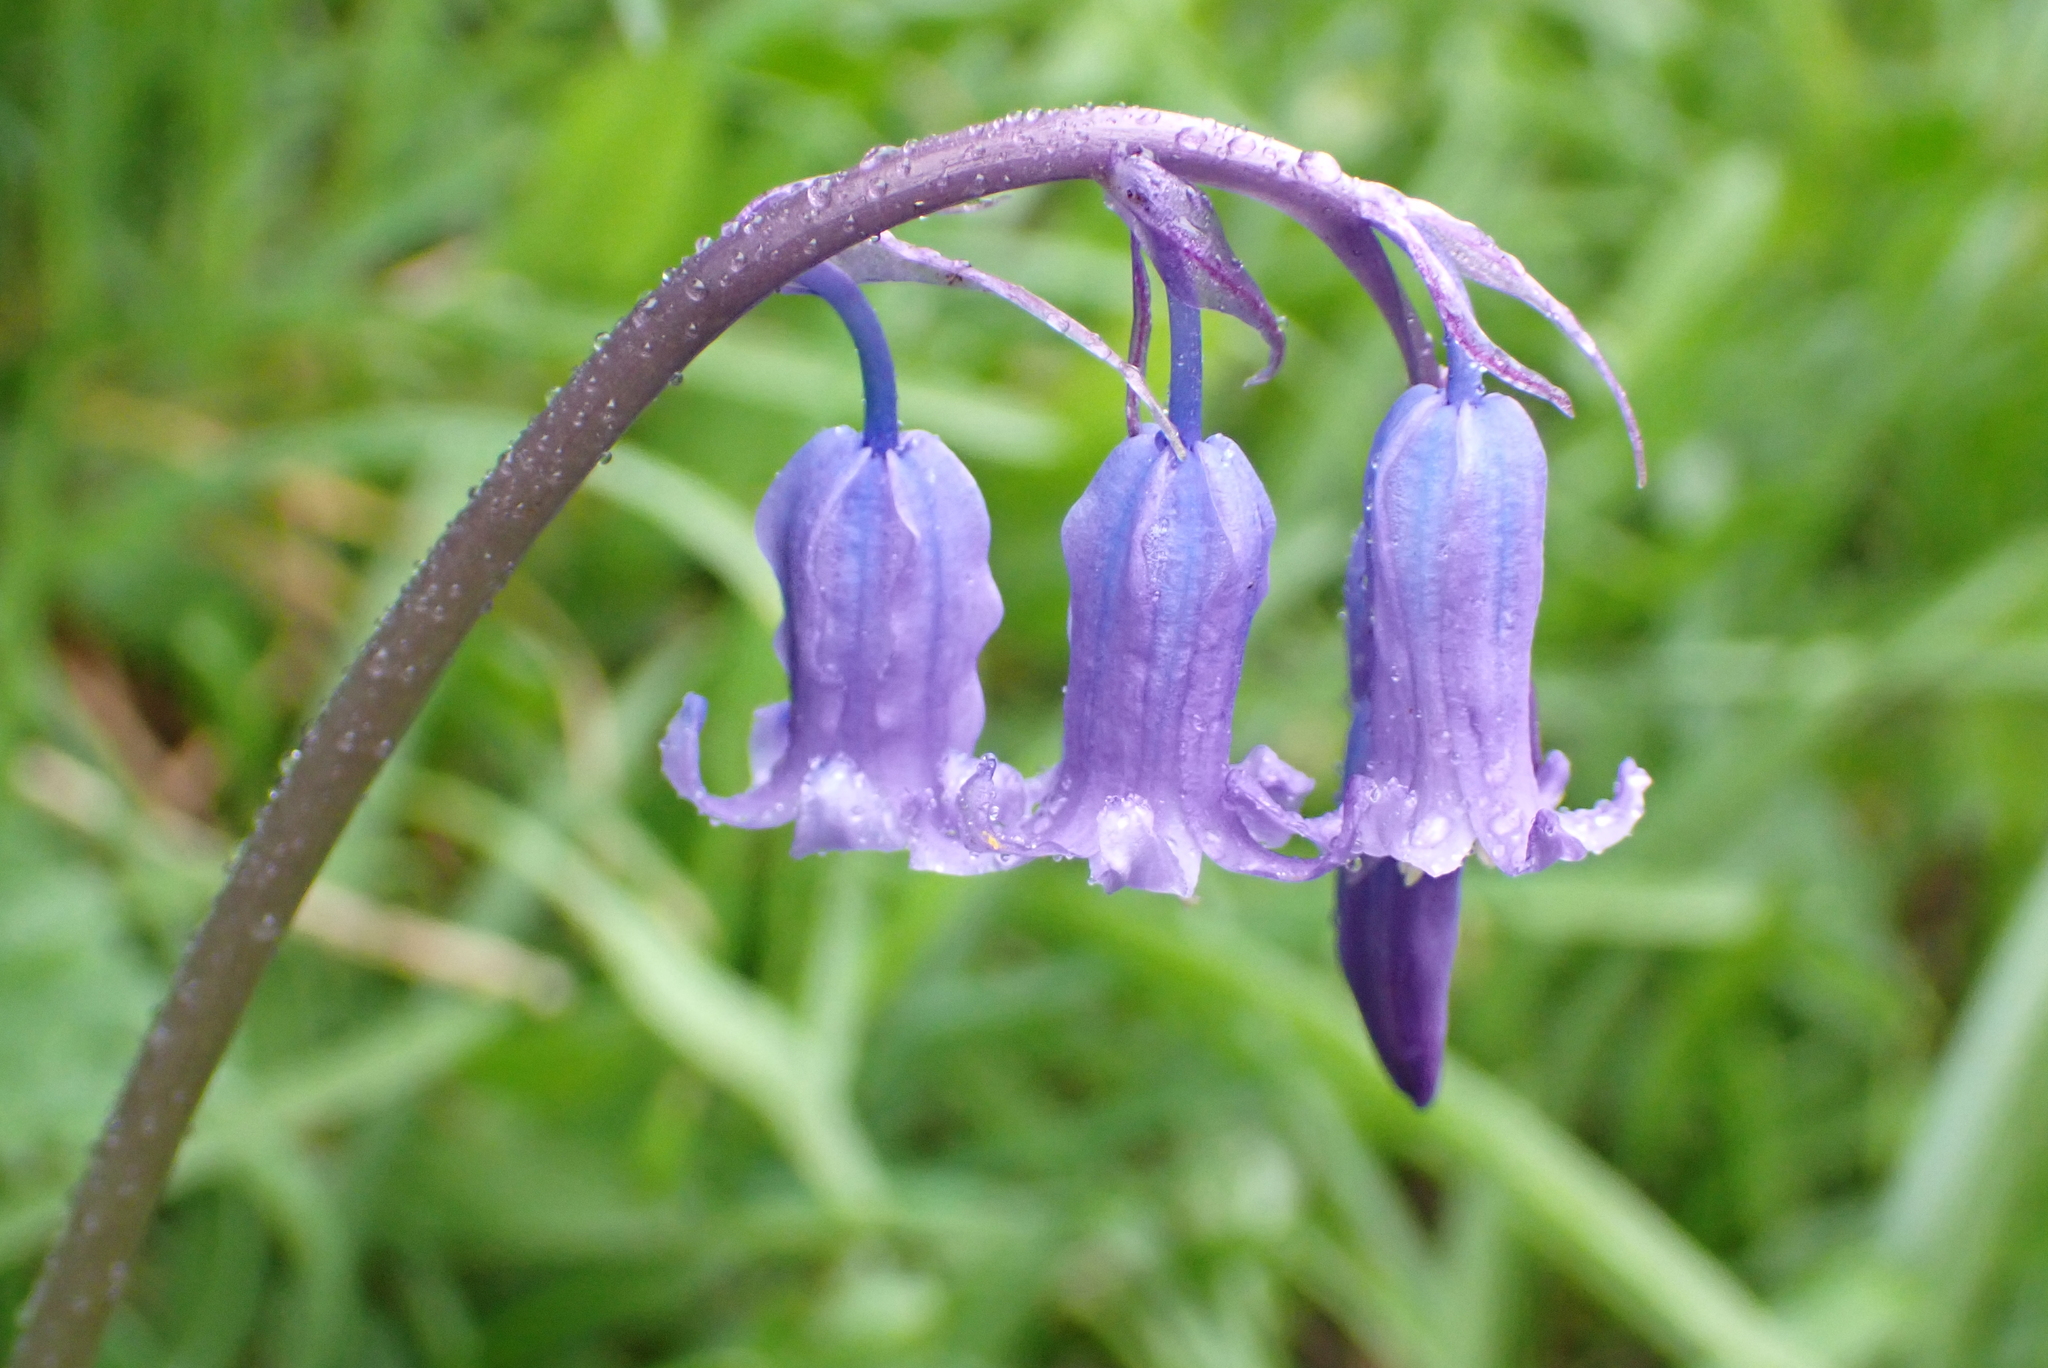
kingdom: Plantae
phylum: Tracheophyta
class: Liliopsida
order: Asparagales
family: Asparagaceae
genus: Hyacinthoides
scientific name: Hyacinthoides non-scripta
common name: Bluebell
